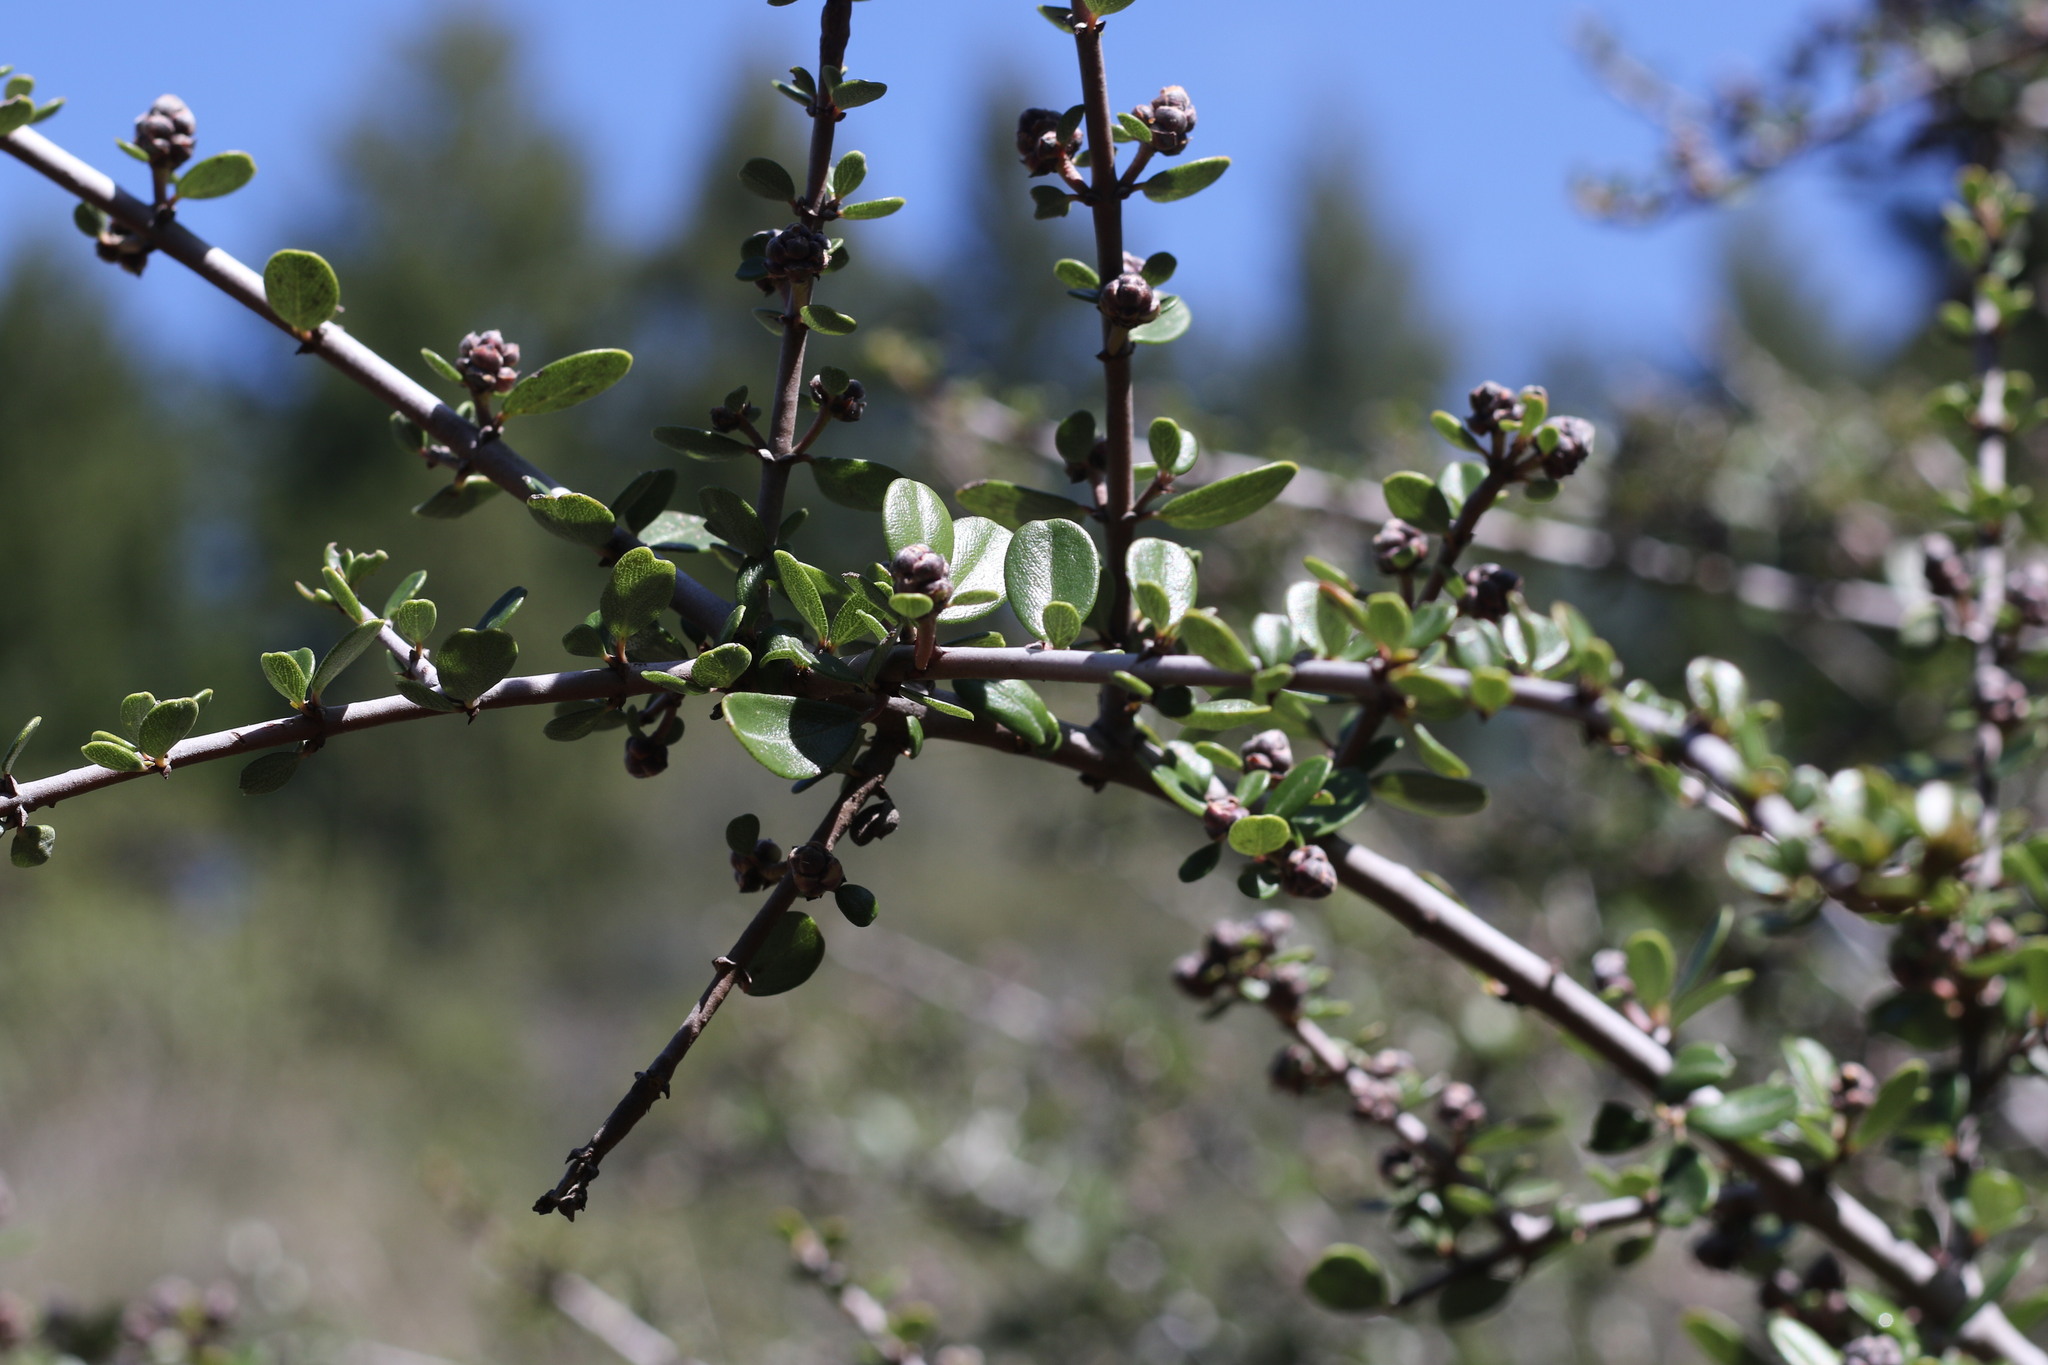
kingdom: Plantae
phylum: Tracheophyta
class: Magnoliopsida
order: Rosales
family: Rhamnaceae
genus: Ceanothus
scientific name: Ceanothus cuneatus
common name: Cuneate ceanothus
